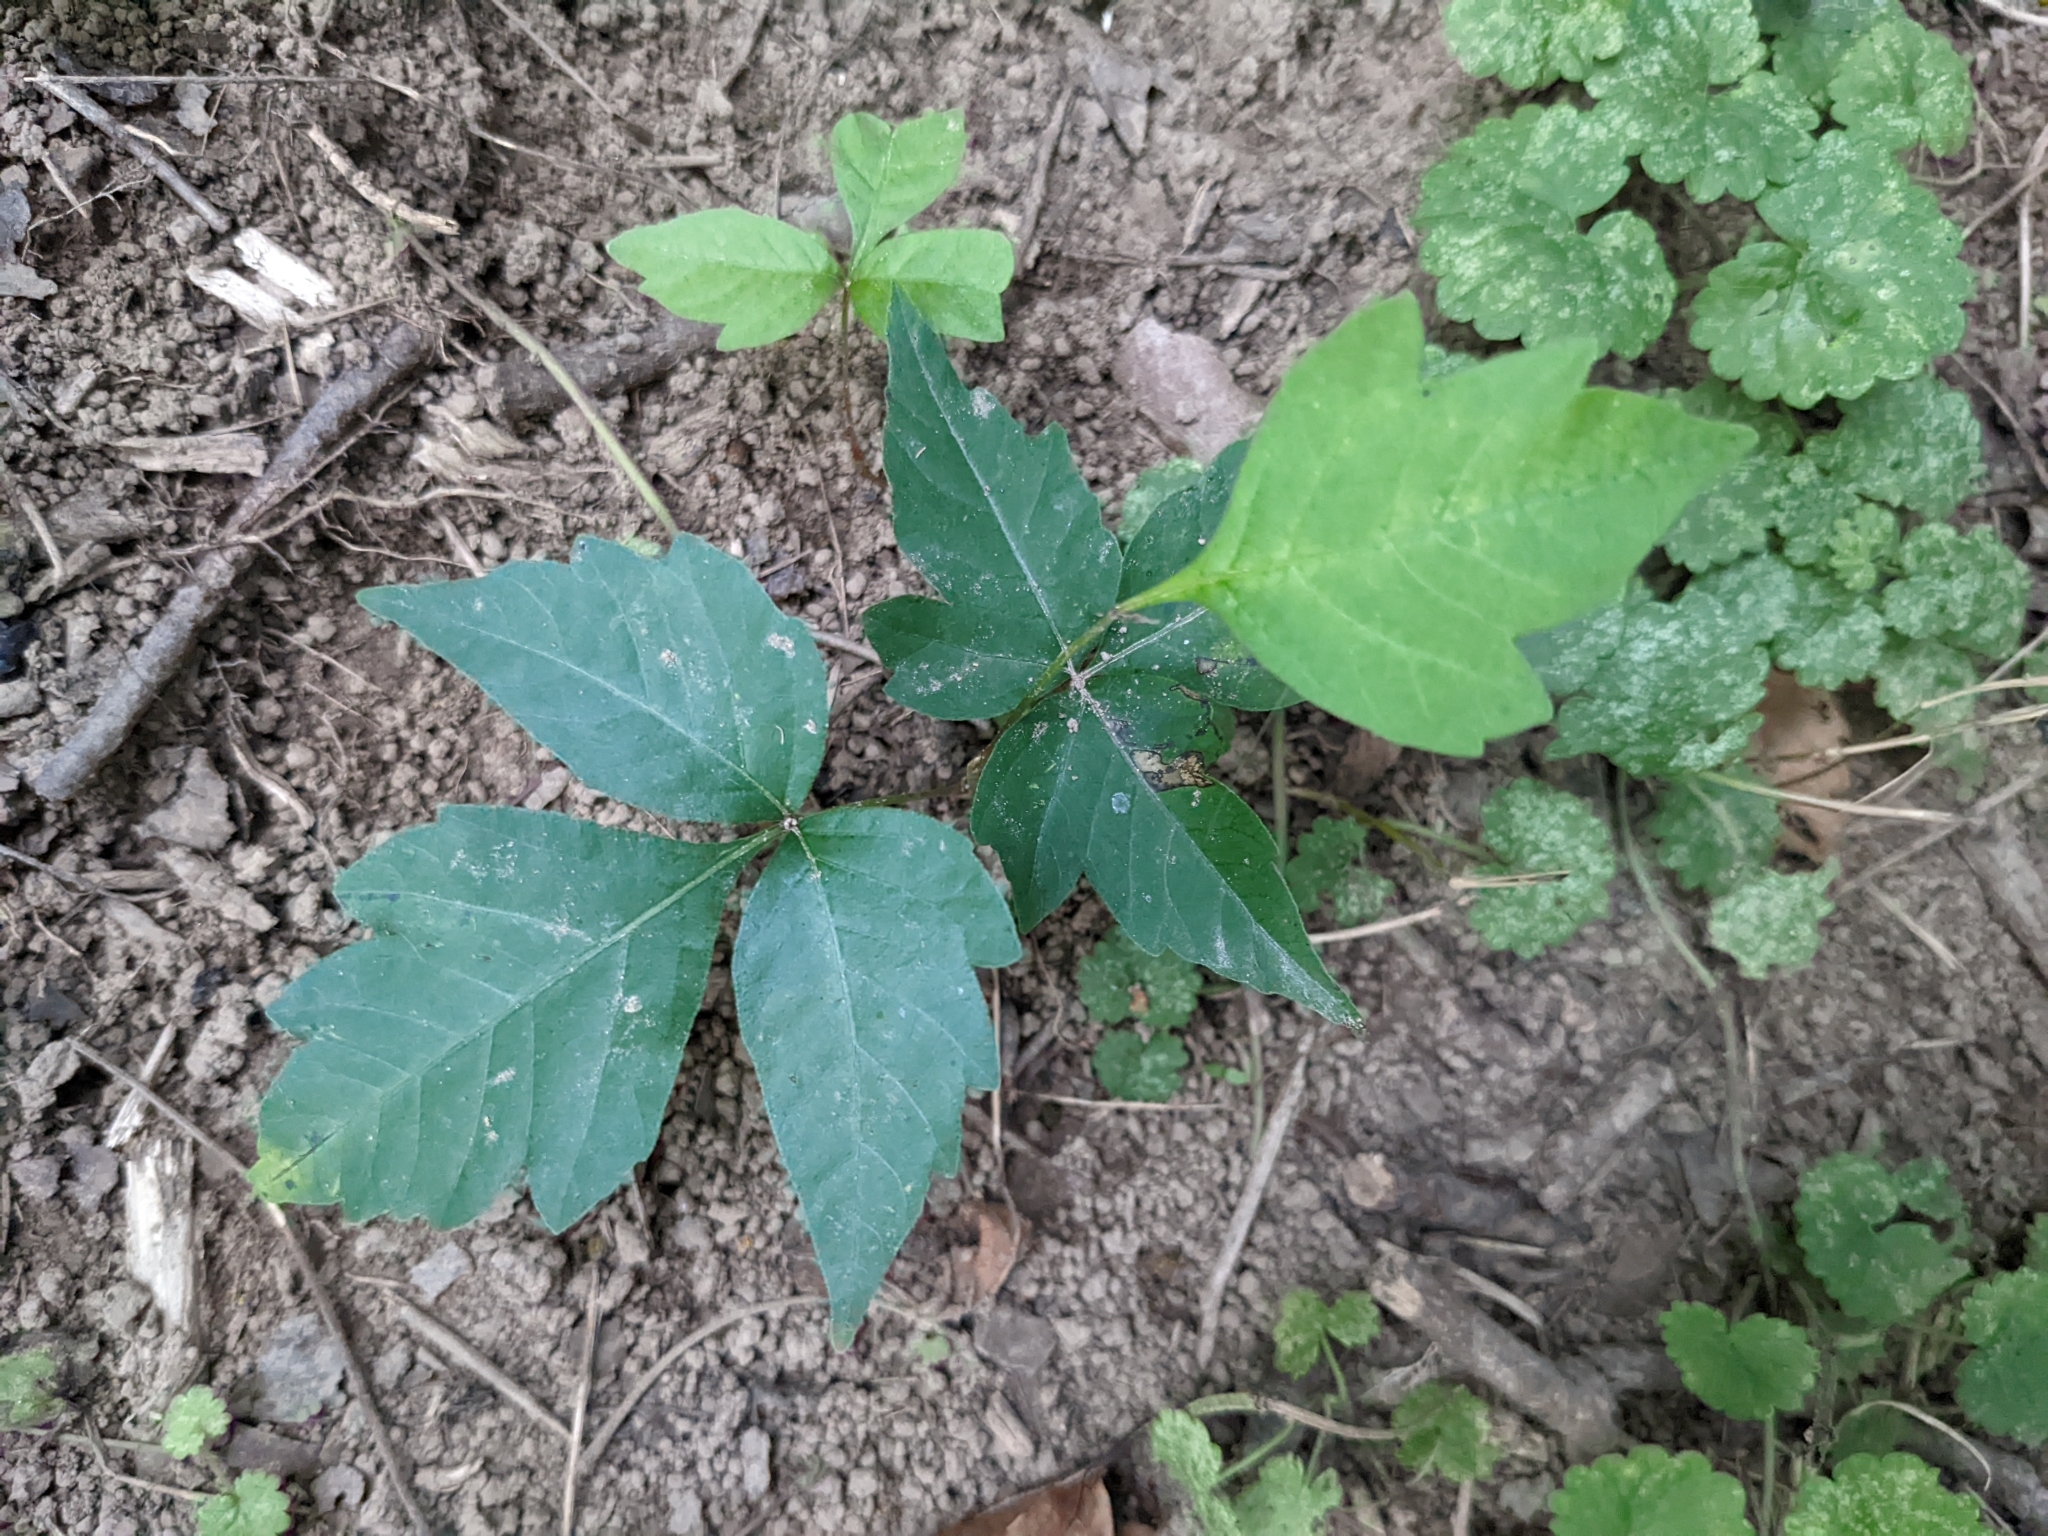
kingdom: Plantae
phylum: Tracheophyta
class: Magnoliopsida
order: Sapindales
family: Anacardiaceae
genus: Toxicodendron
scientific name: Toxicodendron radicans
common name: Poison ivy
